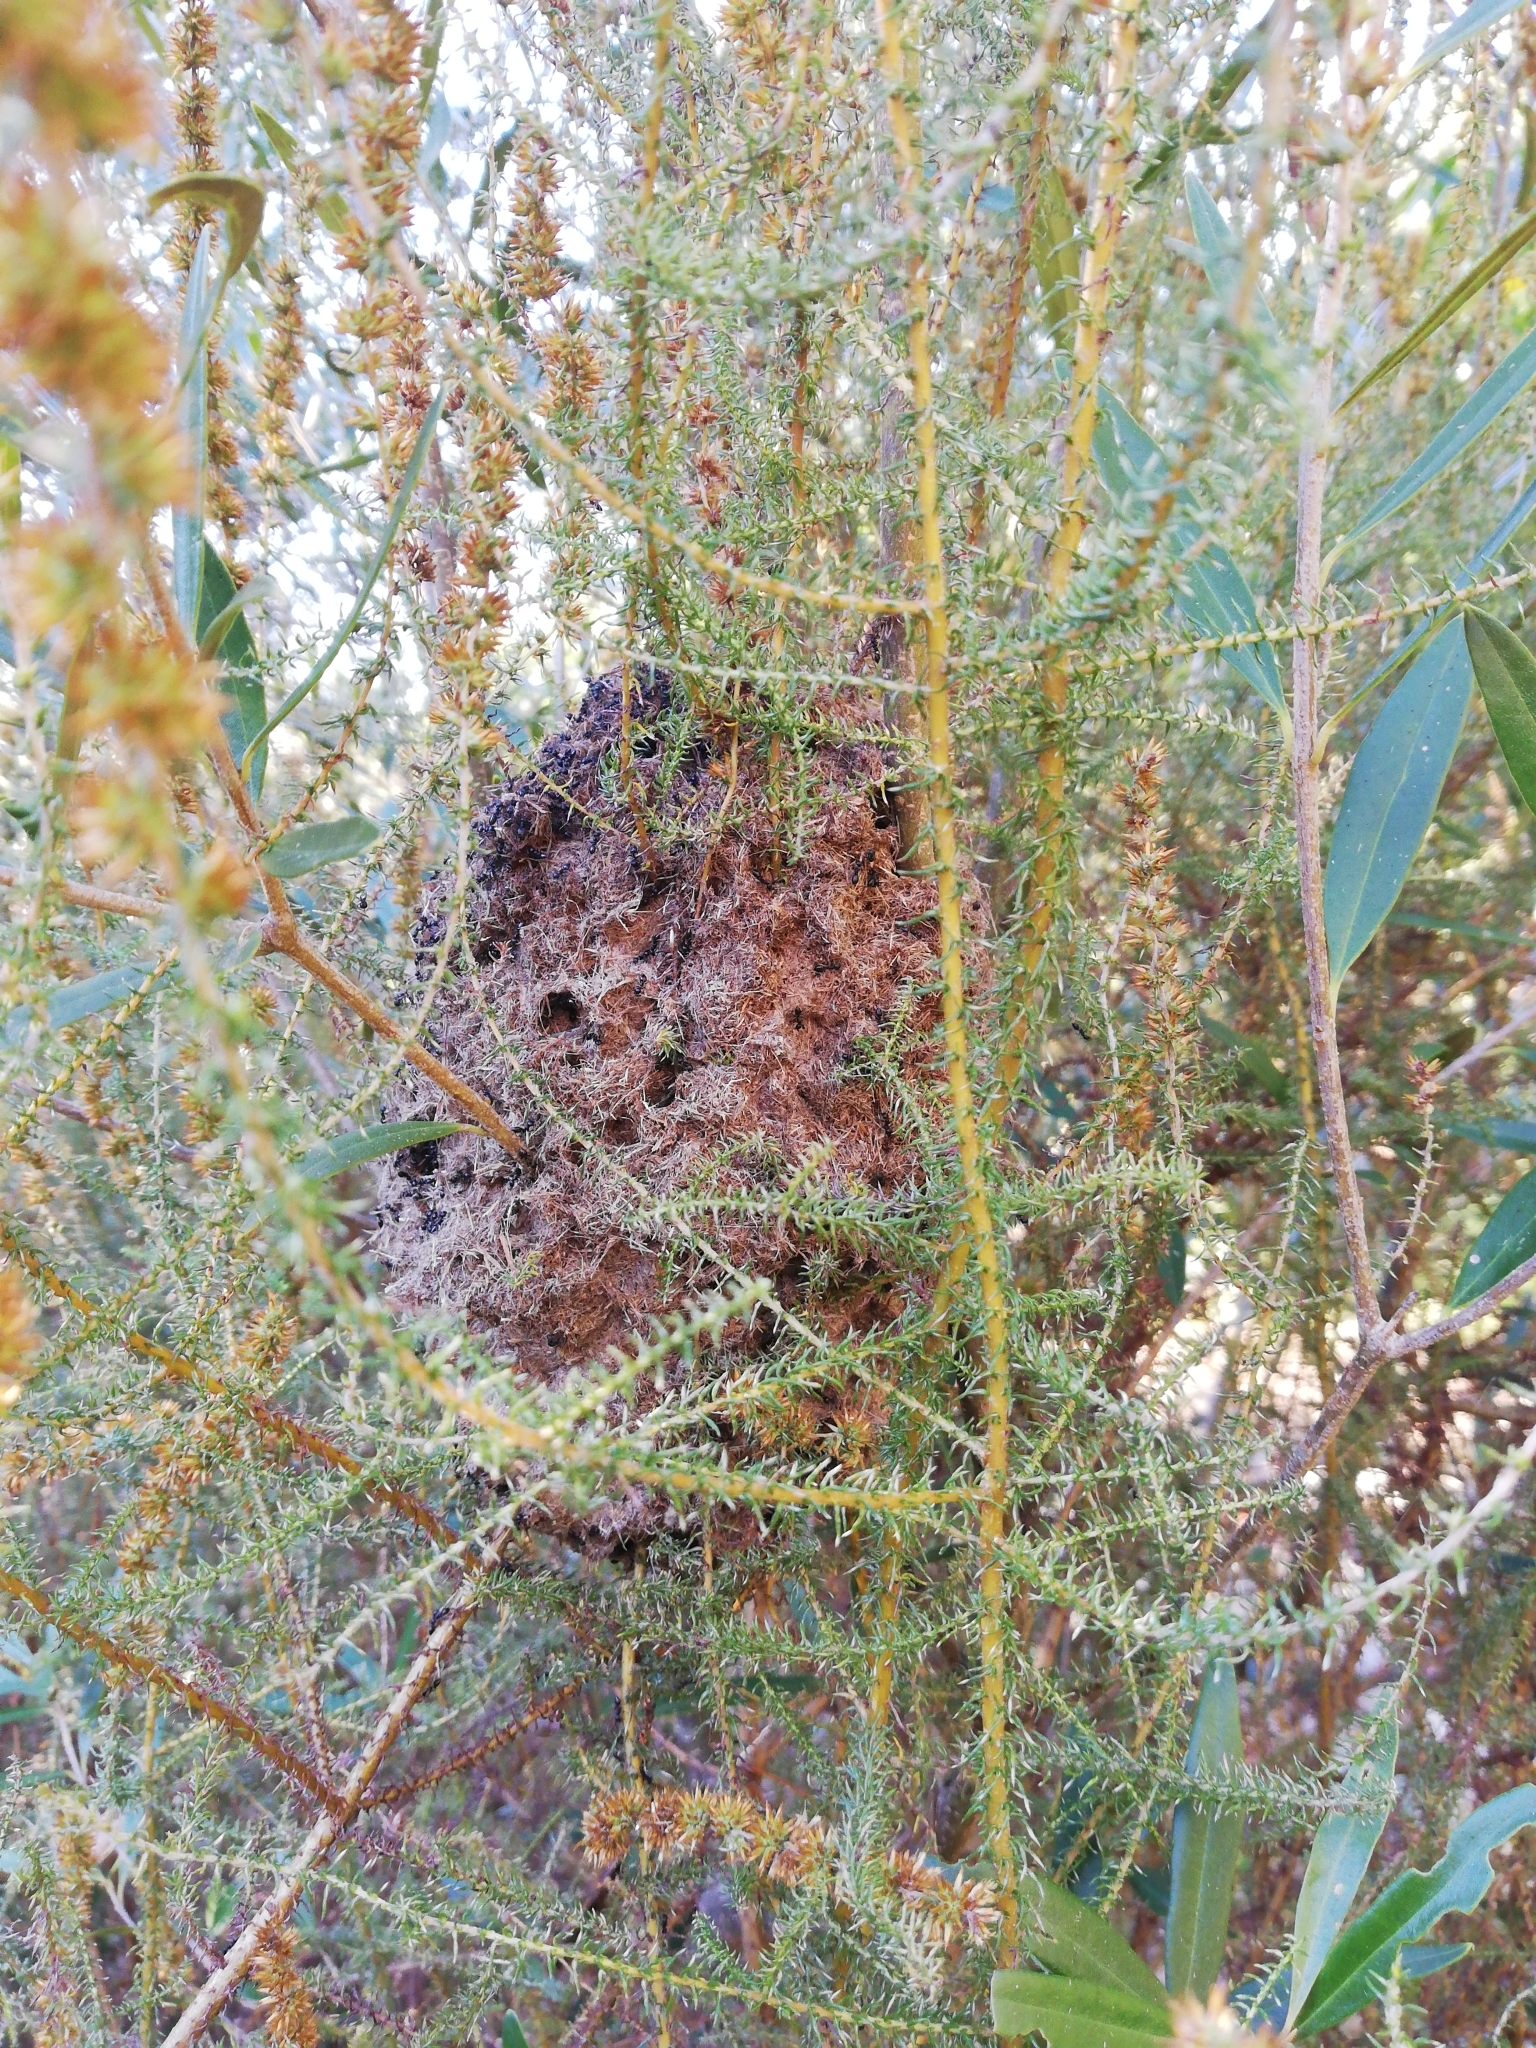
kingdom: Animalia
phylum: Arthropoda
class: Insecta
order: Hymenoptera
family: Formicidae
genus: Crematogaster
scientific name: Crematogaster peringueyi
